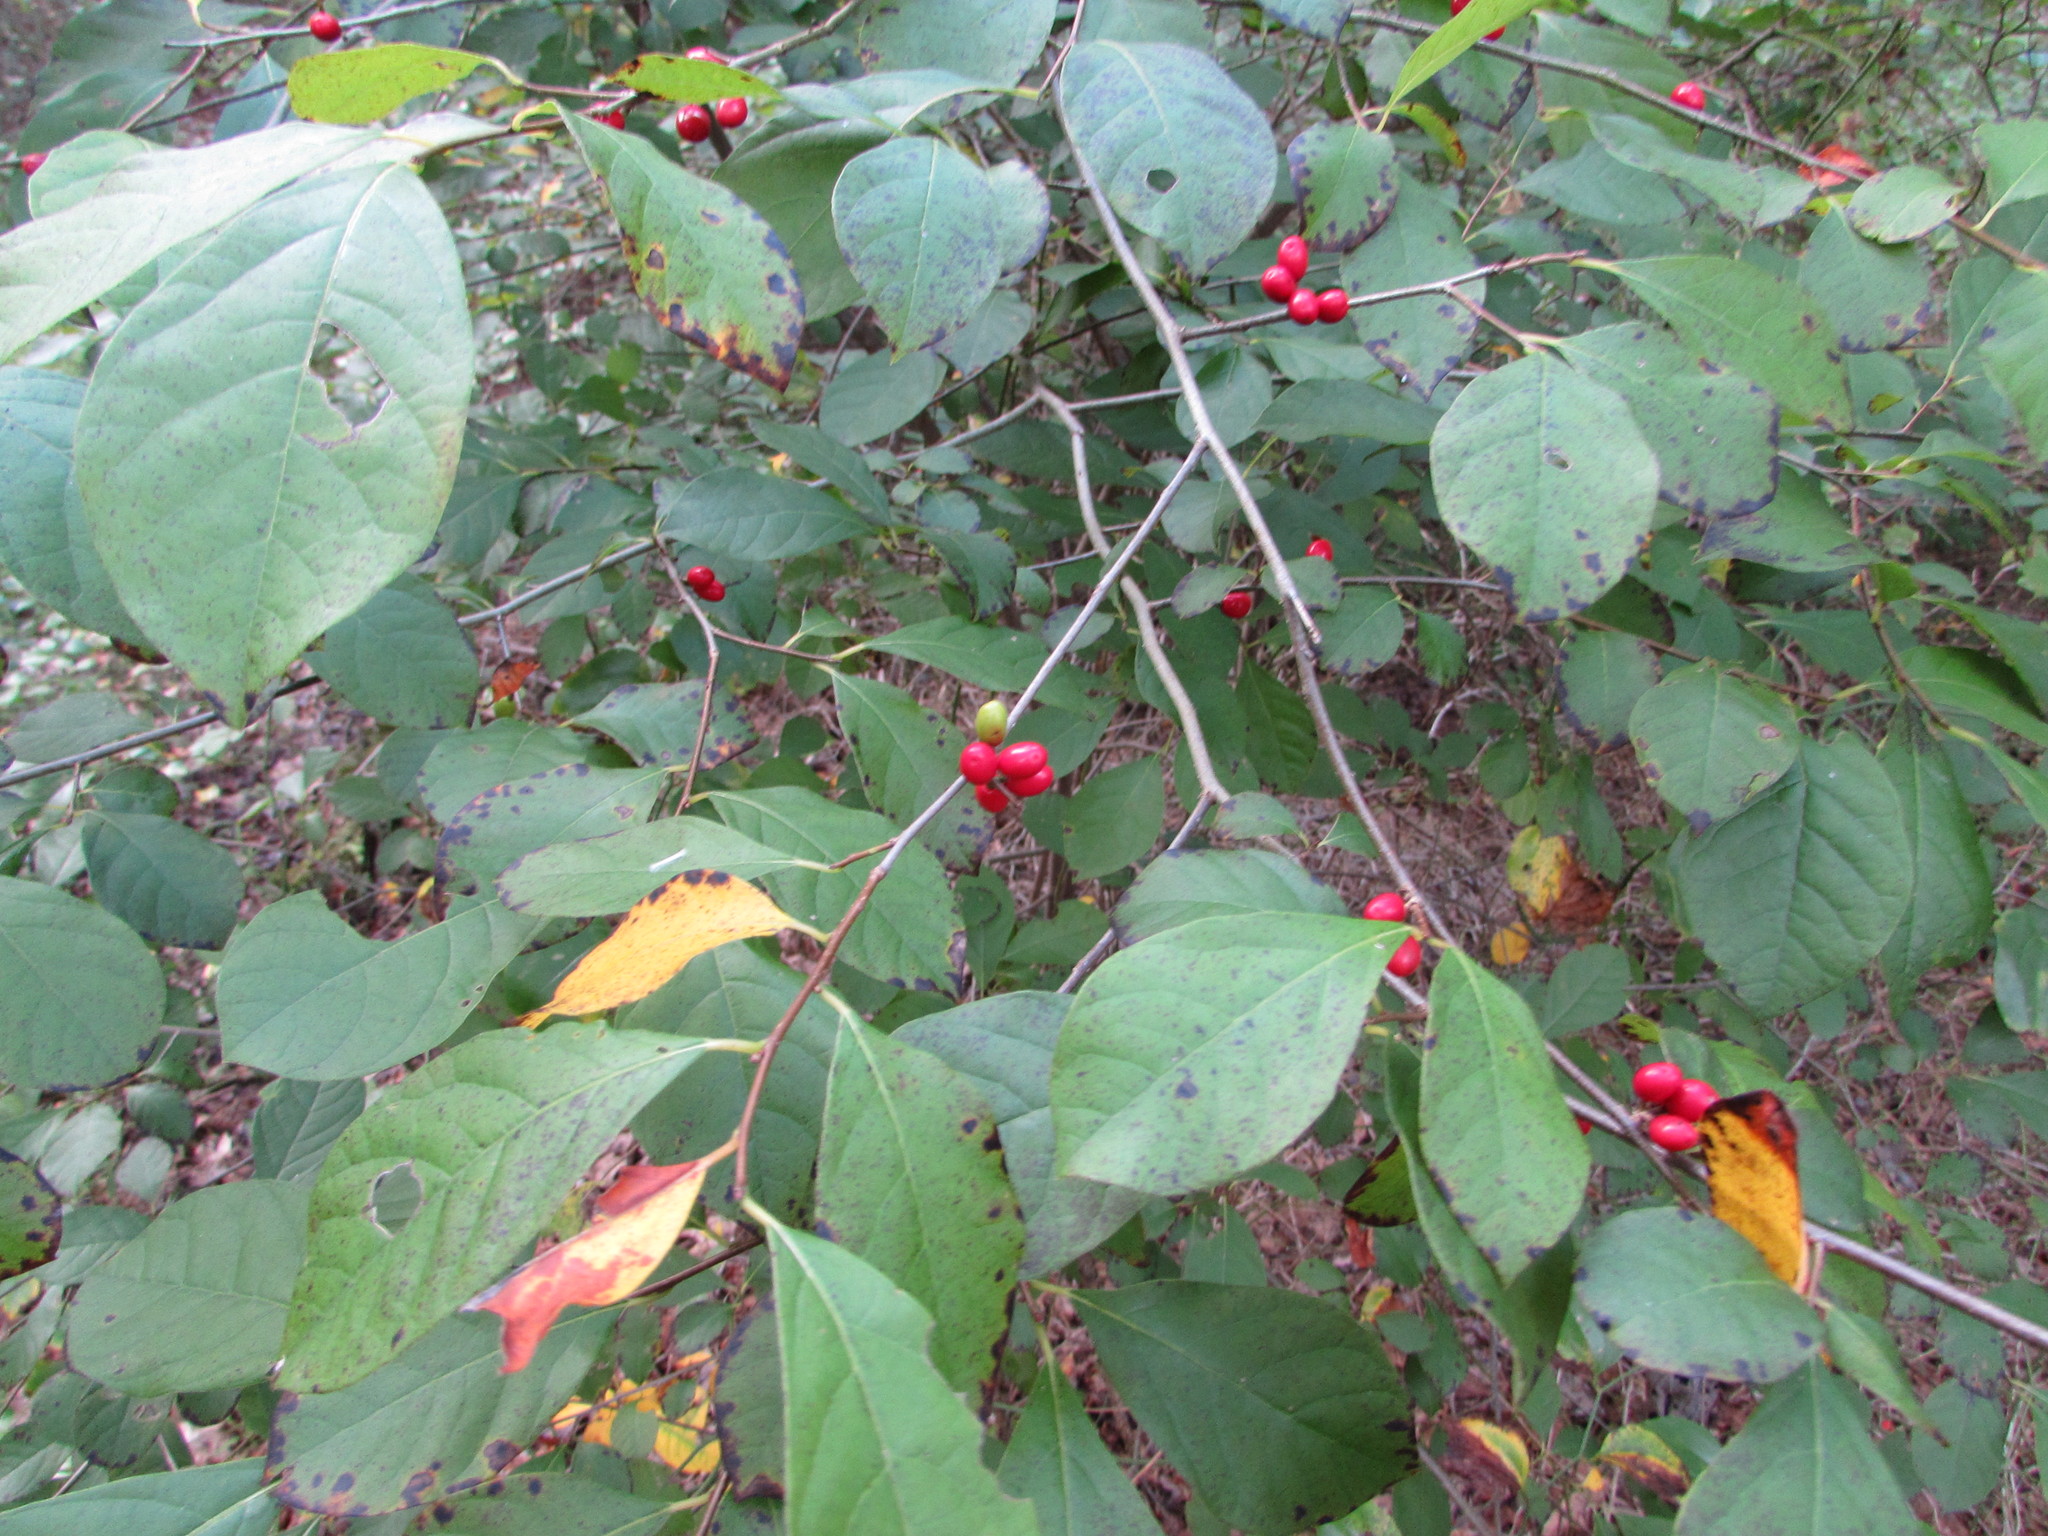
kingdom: Plantae
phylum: Tracheophyta
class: Magnoliopsida
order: Laurales
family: Lauraceae
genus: Lindera
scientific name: Lindera benzoin
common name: Spicebush
